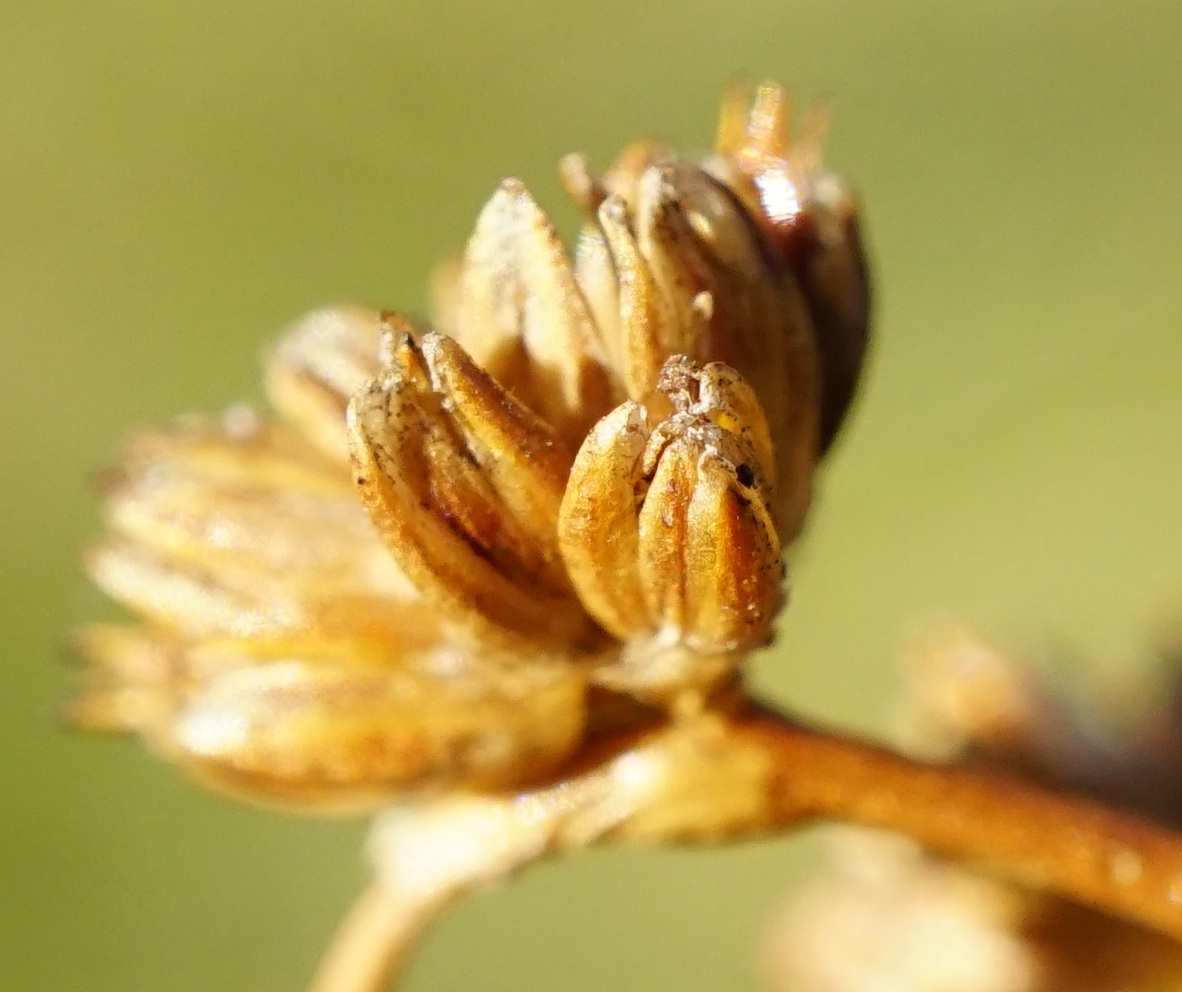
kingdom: Plantae
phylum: Tracheophyta
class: Liliopsida
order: Poales
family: Juncaceae
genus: Juncus
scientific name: Juncus subnodulosus
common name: Blunt-flowered rush
